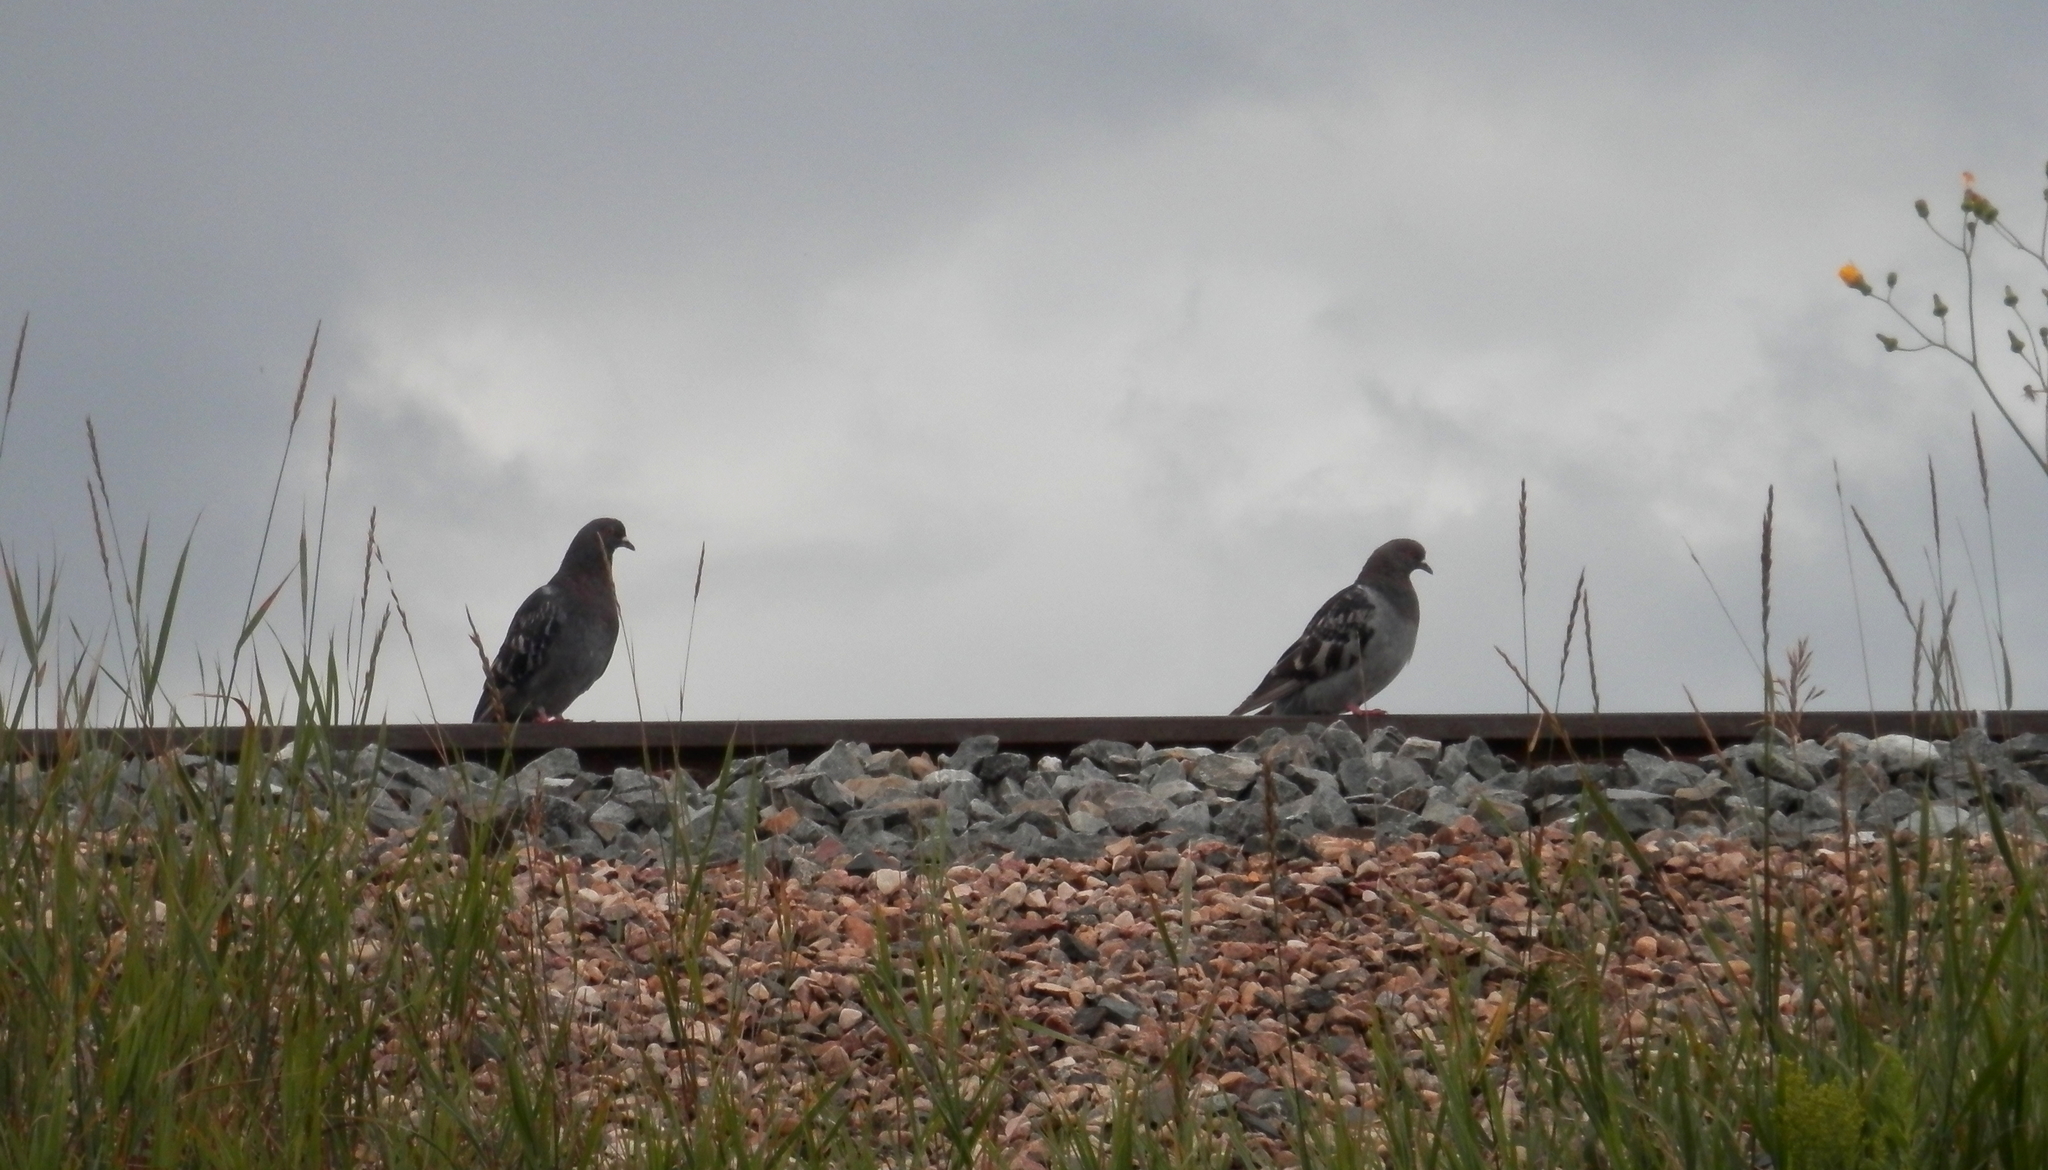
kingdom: Animalia
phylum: Chordata
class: Aves
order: Columbiformes
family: Columbidae
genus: Columba
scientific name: Columba livia
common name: Rock pigeon
